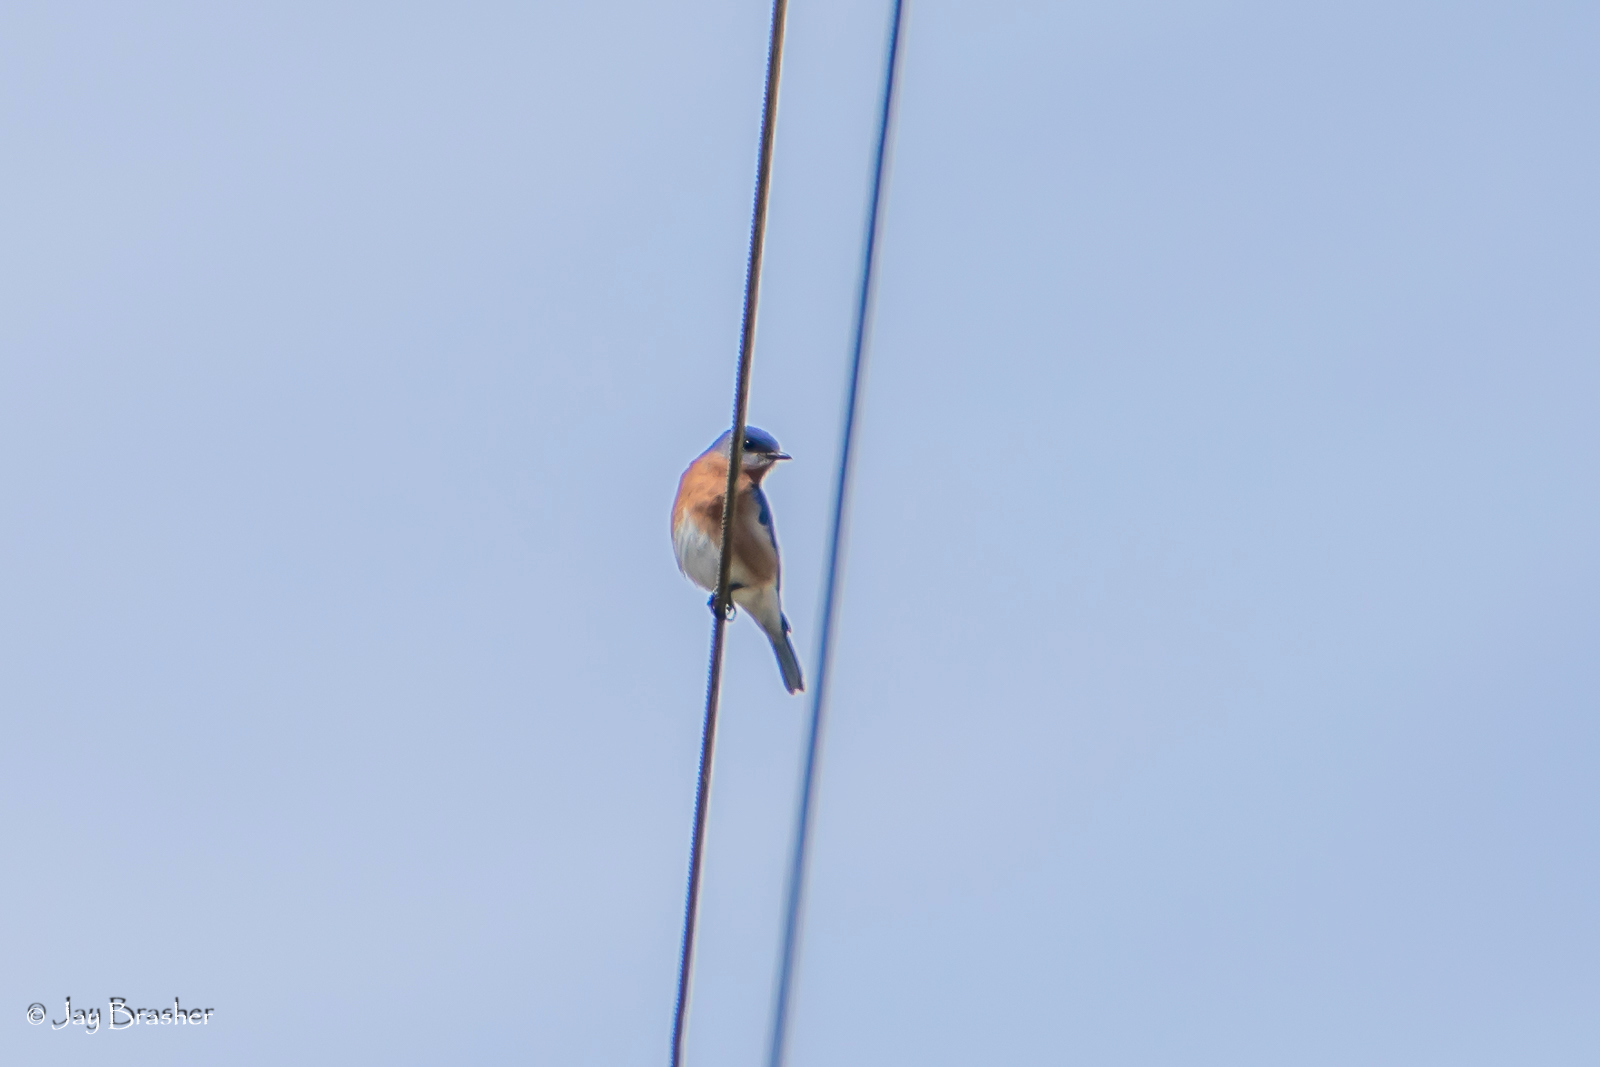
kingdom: Animalia
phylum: Chordata
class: Aves
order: Passeriformes
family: Turdidae
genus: Sialia
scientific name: Sialia sialis
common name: Eastern bluebird
